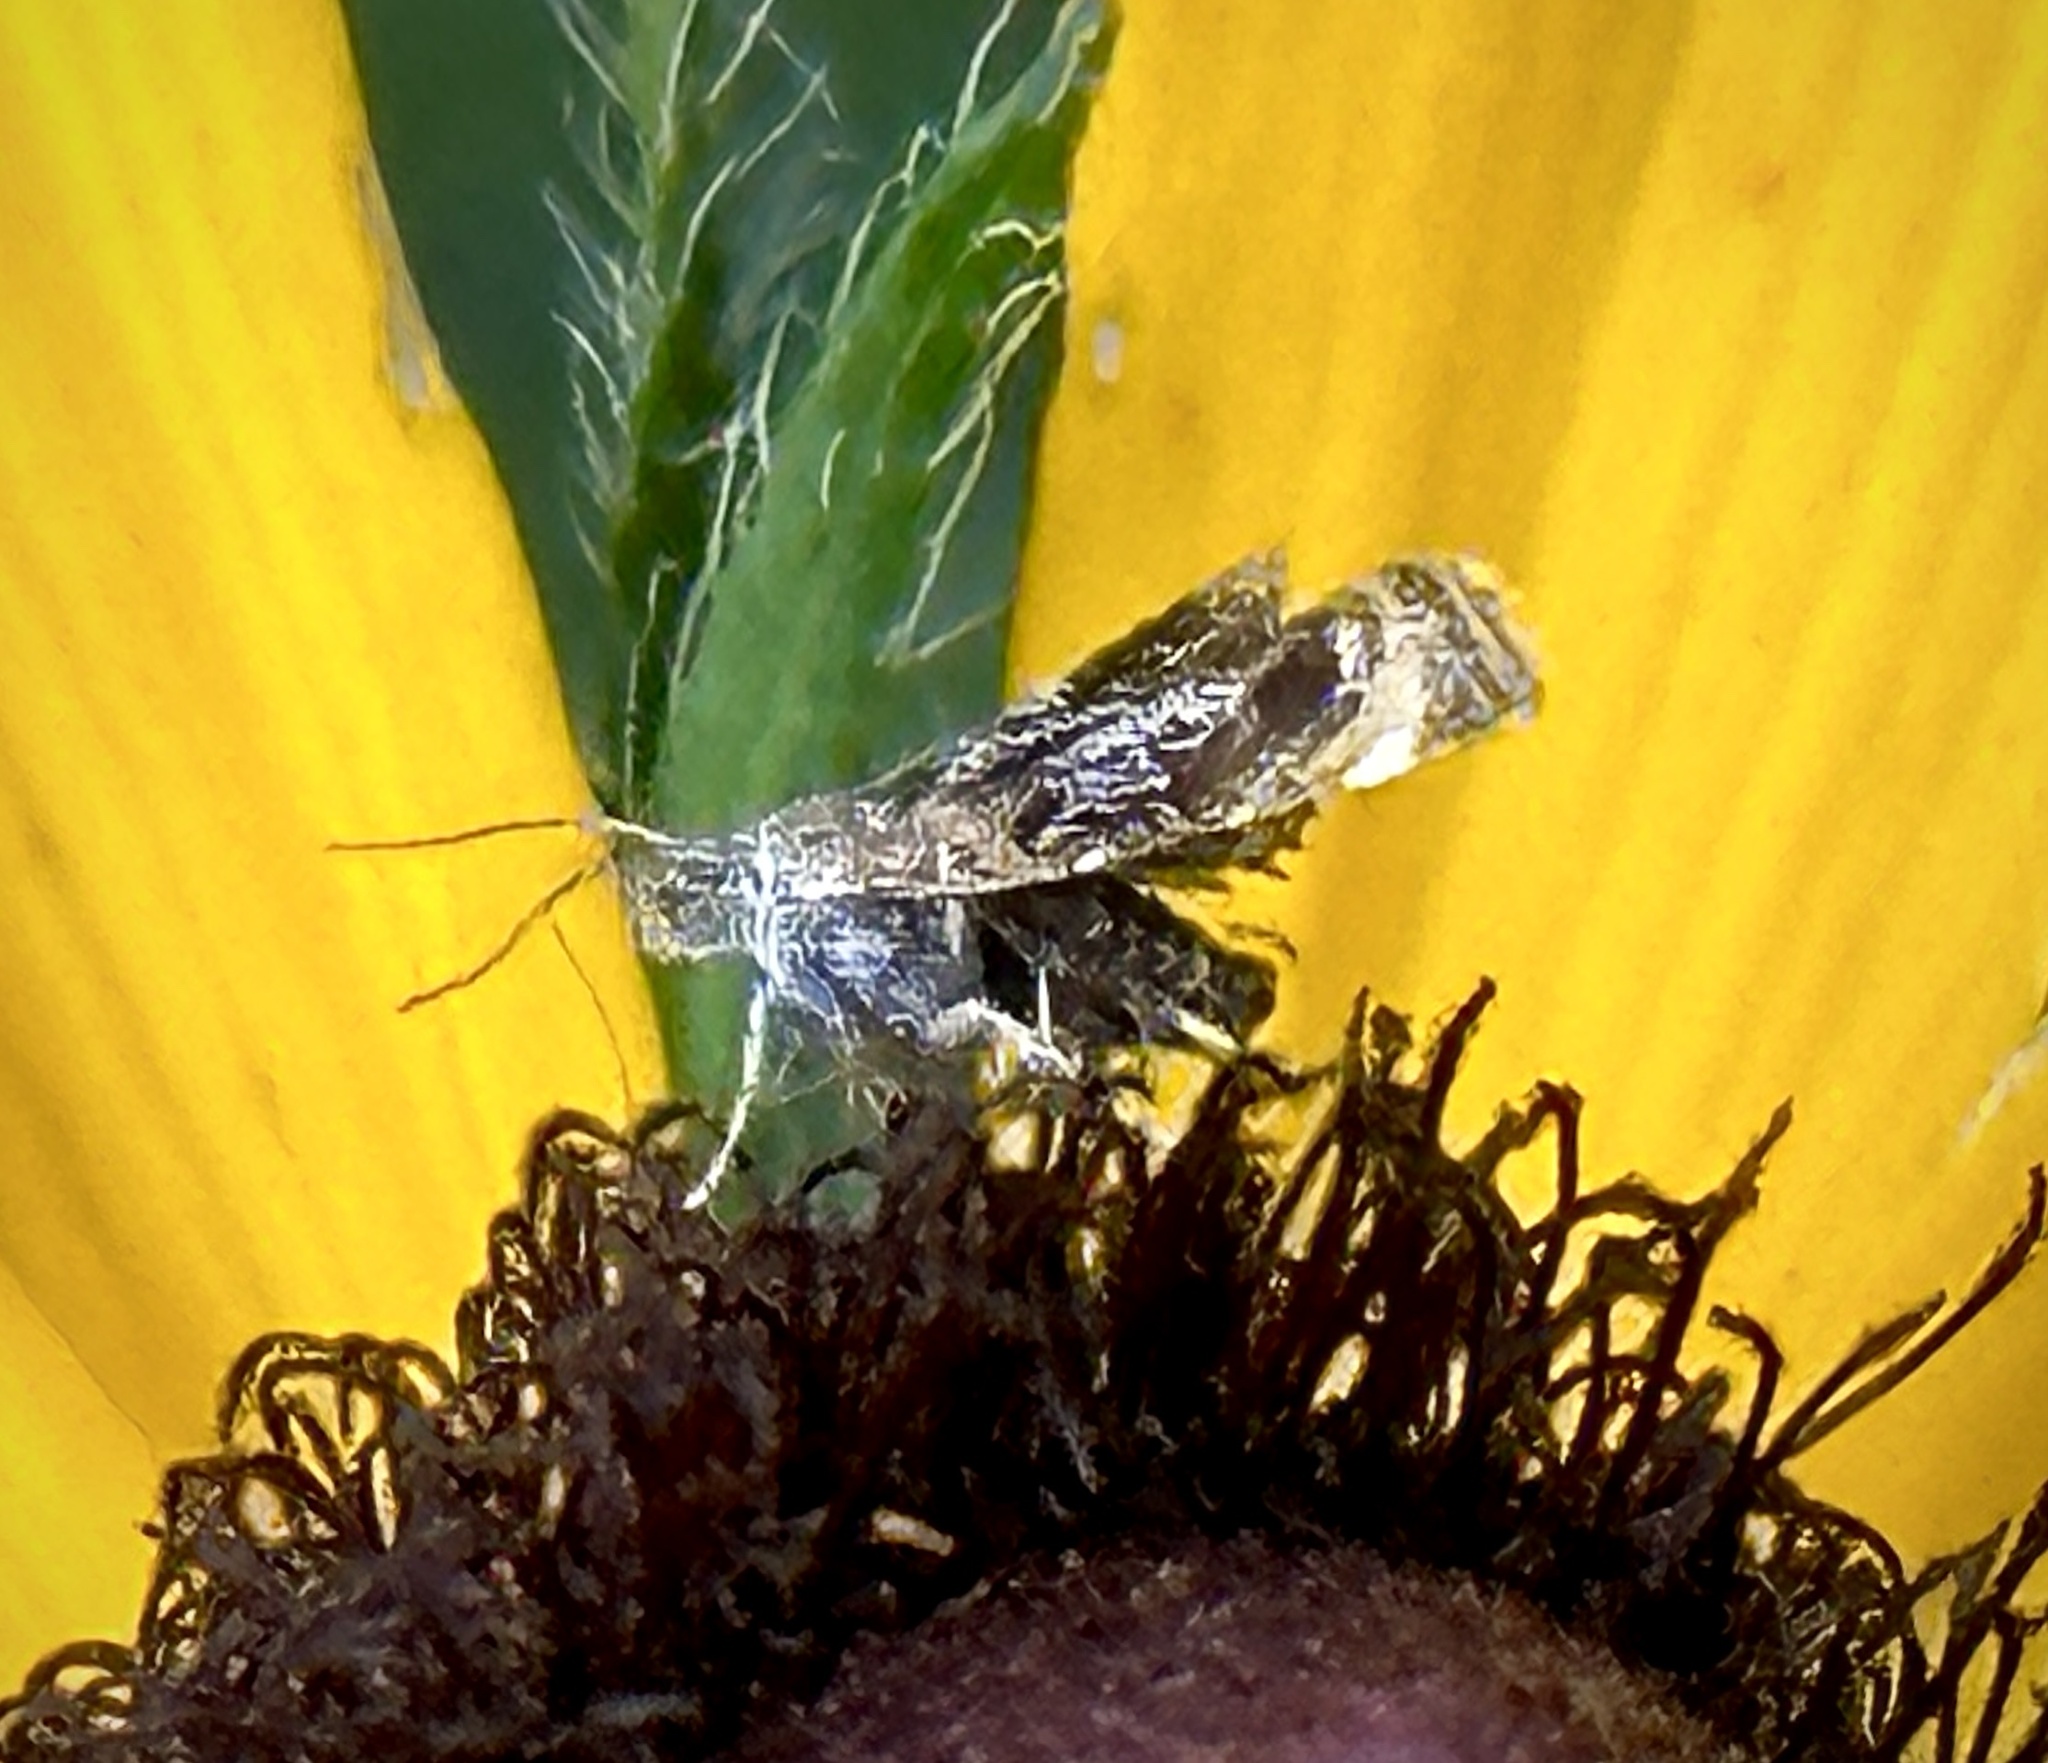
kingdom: Animalia
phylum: Arthropoda
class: Insecta
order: Lepidoptera
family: Choreutidae
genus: Prochoreutis
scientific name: Prochoreutis inflatella
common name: Skullcap skeletonizer moth
